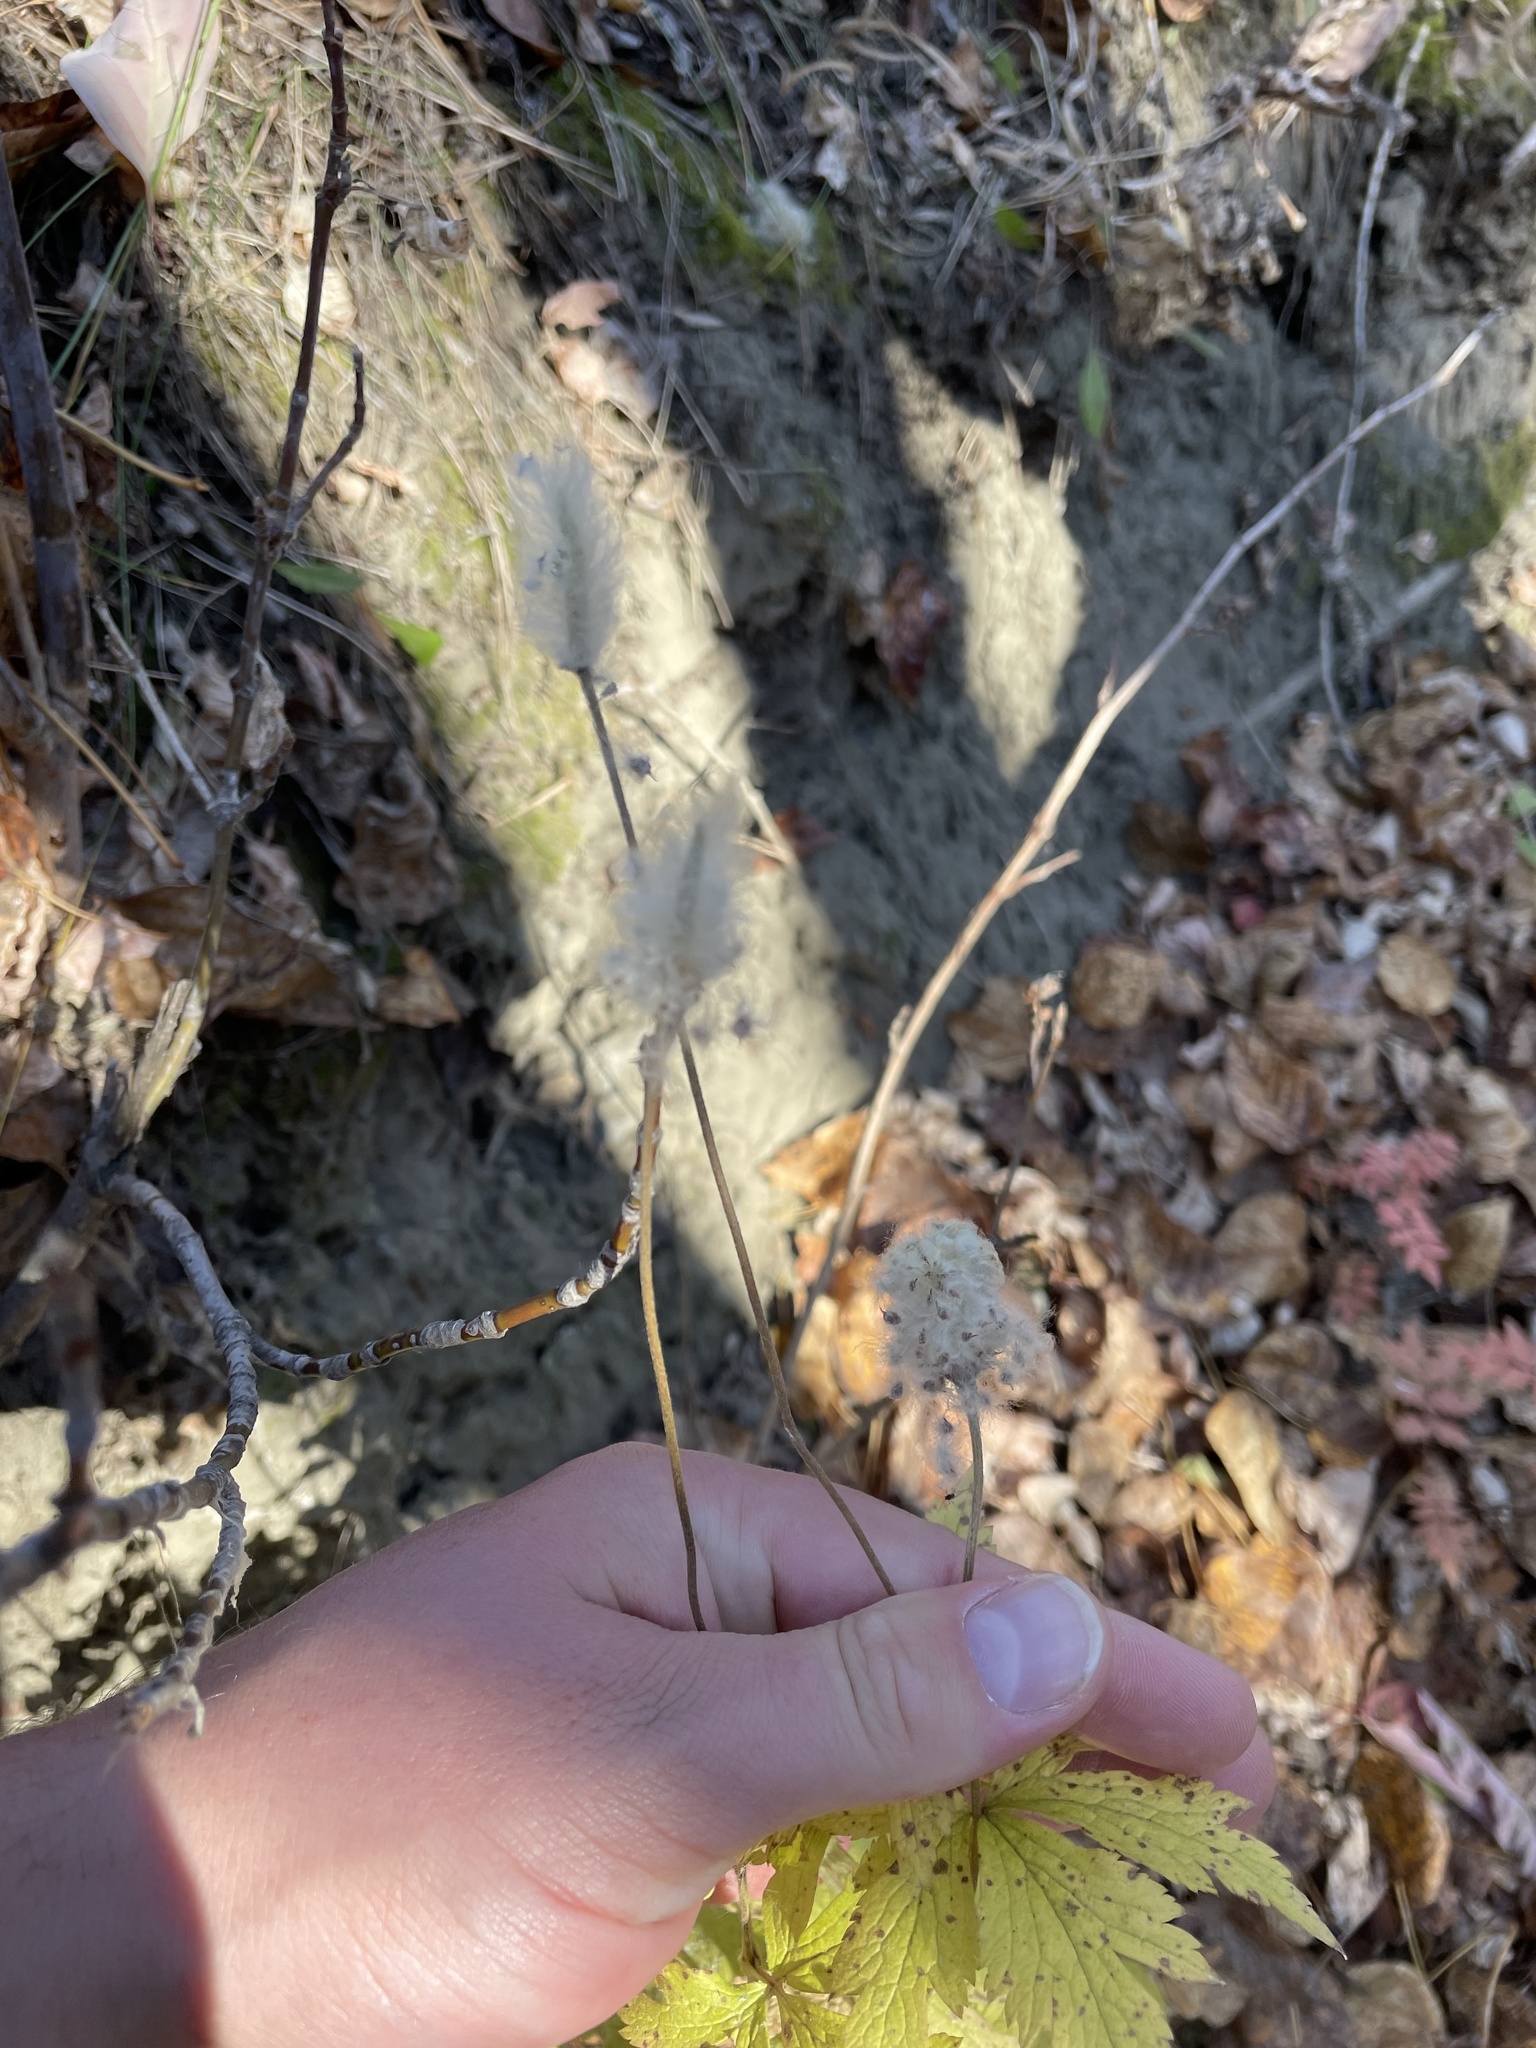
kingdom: Plantae
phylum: Tracheophyta
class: Magnoliopsida
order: Ranunculales
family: Ranunculaceae
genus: Anemone
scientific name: Anemone virginiana
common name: Tall anemone
